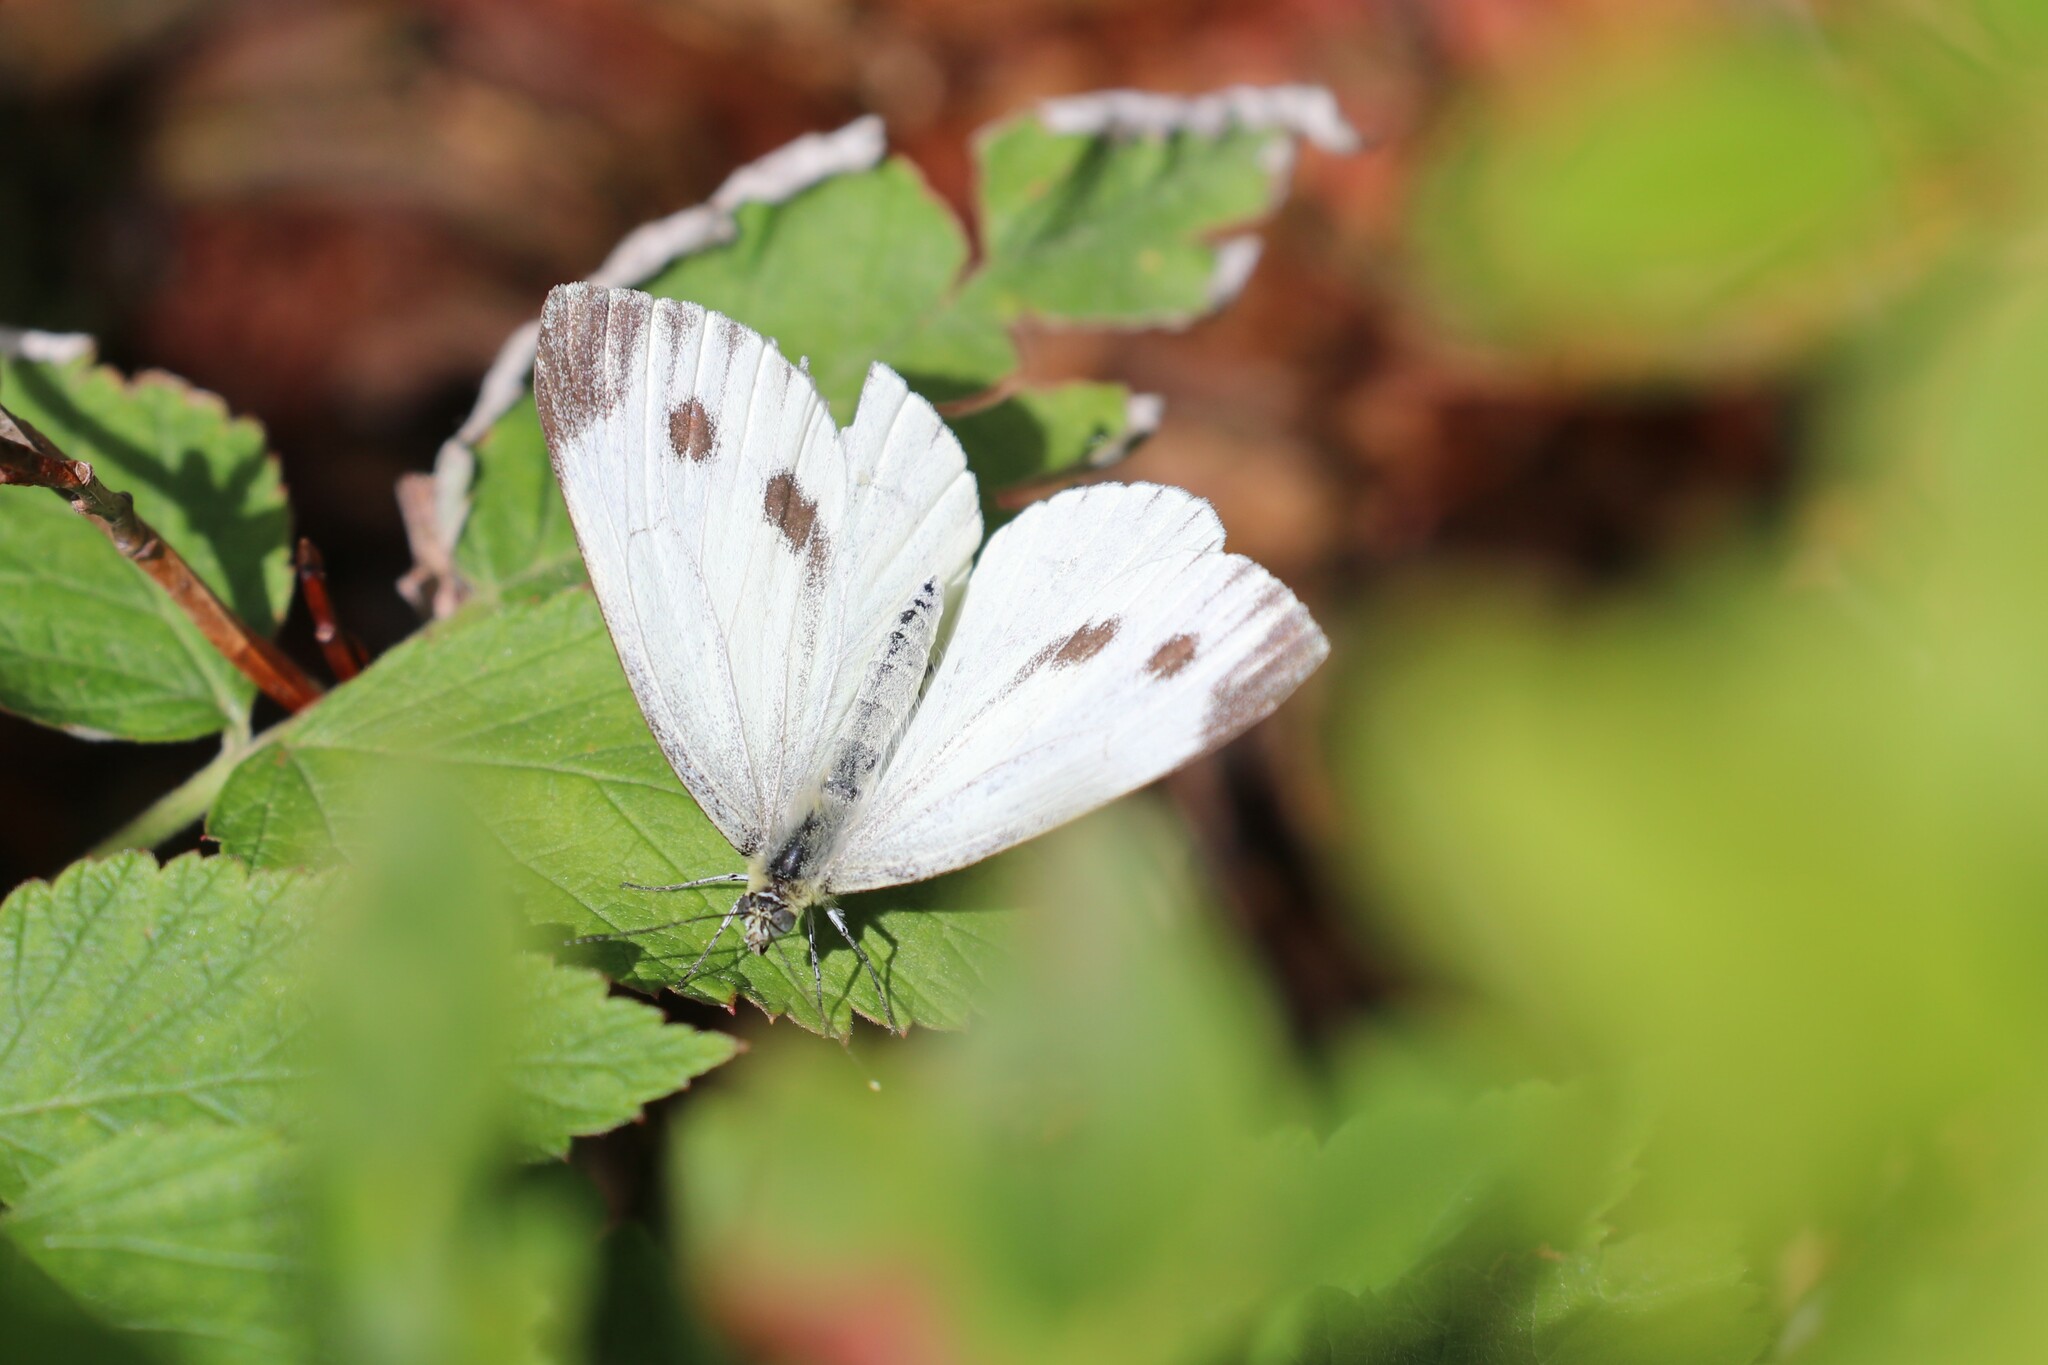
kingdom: Animalia
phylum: Arthropoda
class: Insecta
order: Lepidoptera
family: Pieridae
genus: Pieris
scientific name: Pieris napi
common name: Green-veined white
